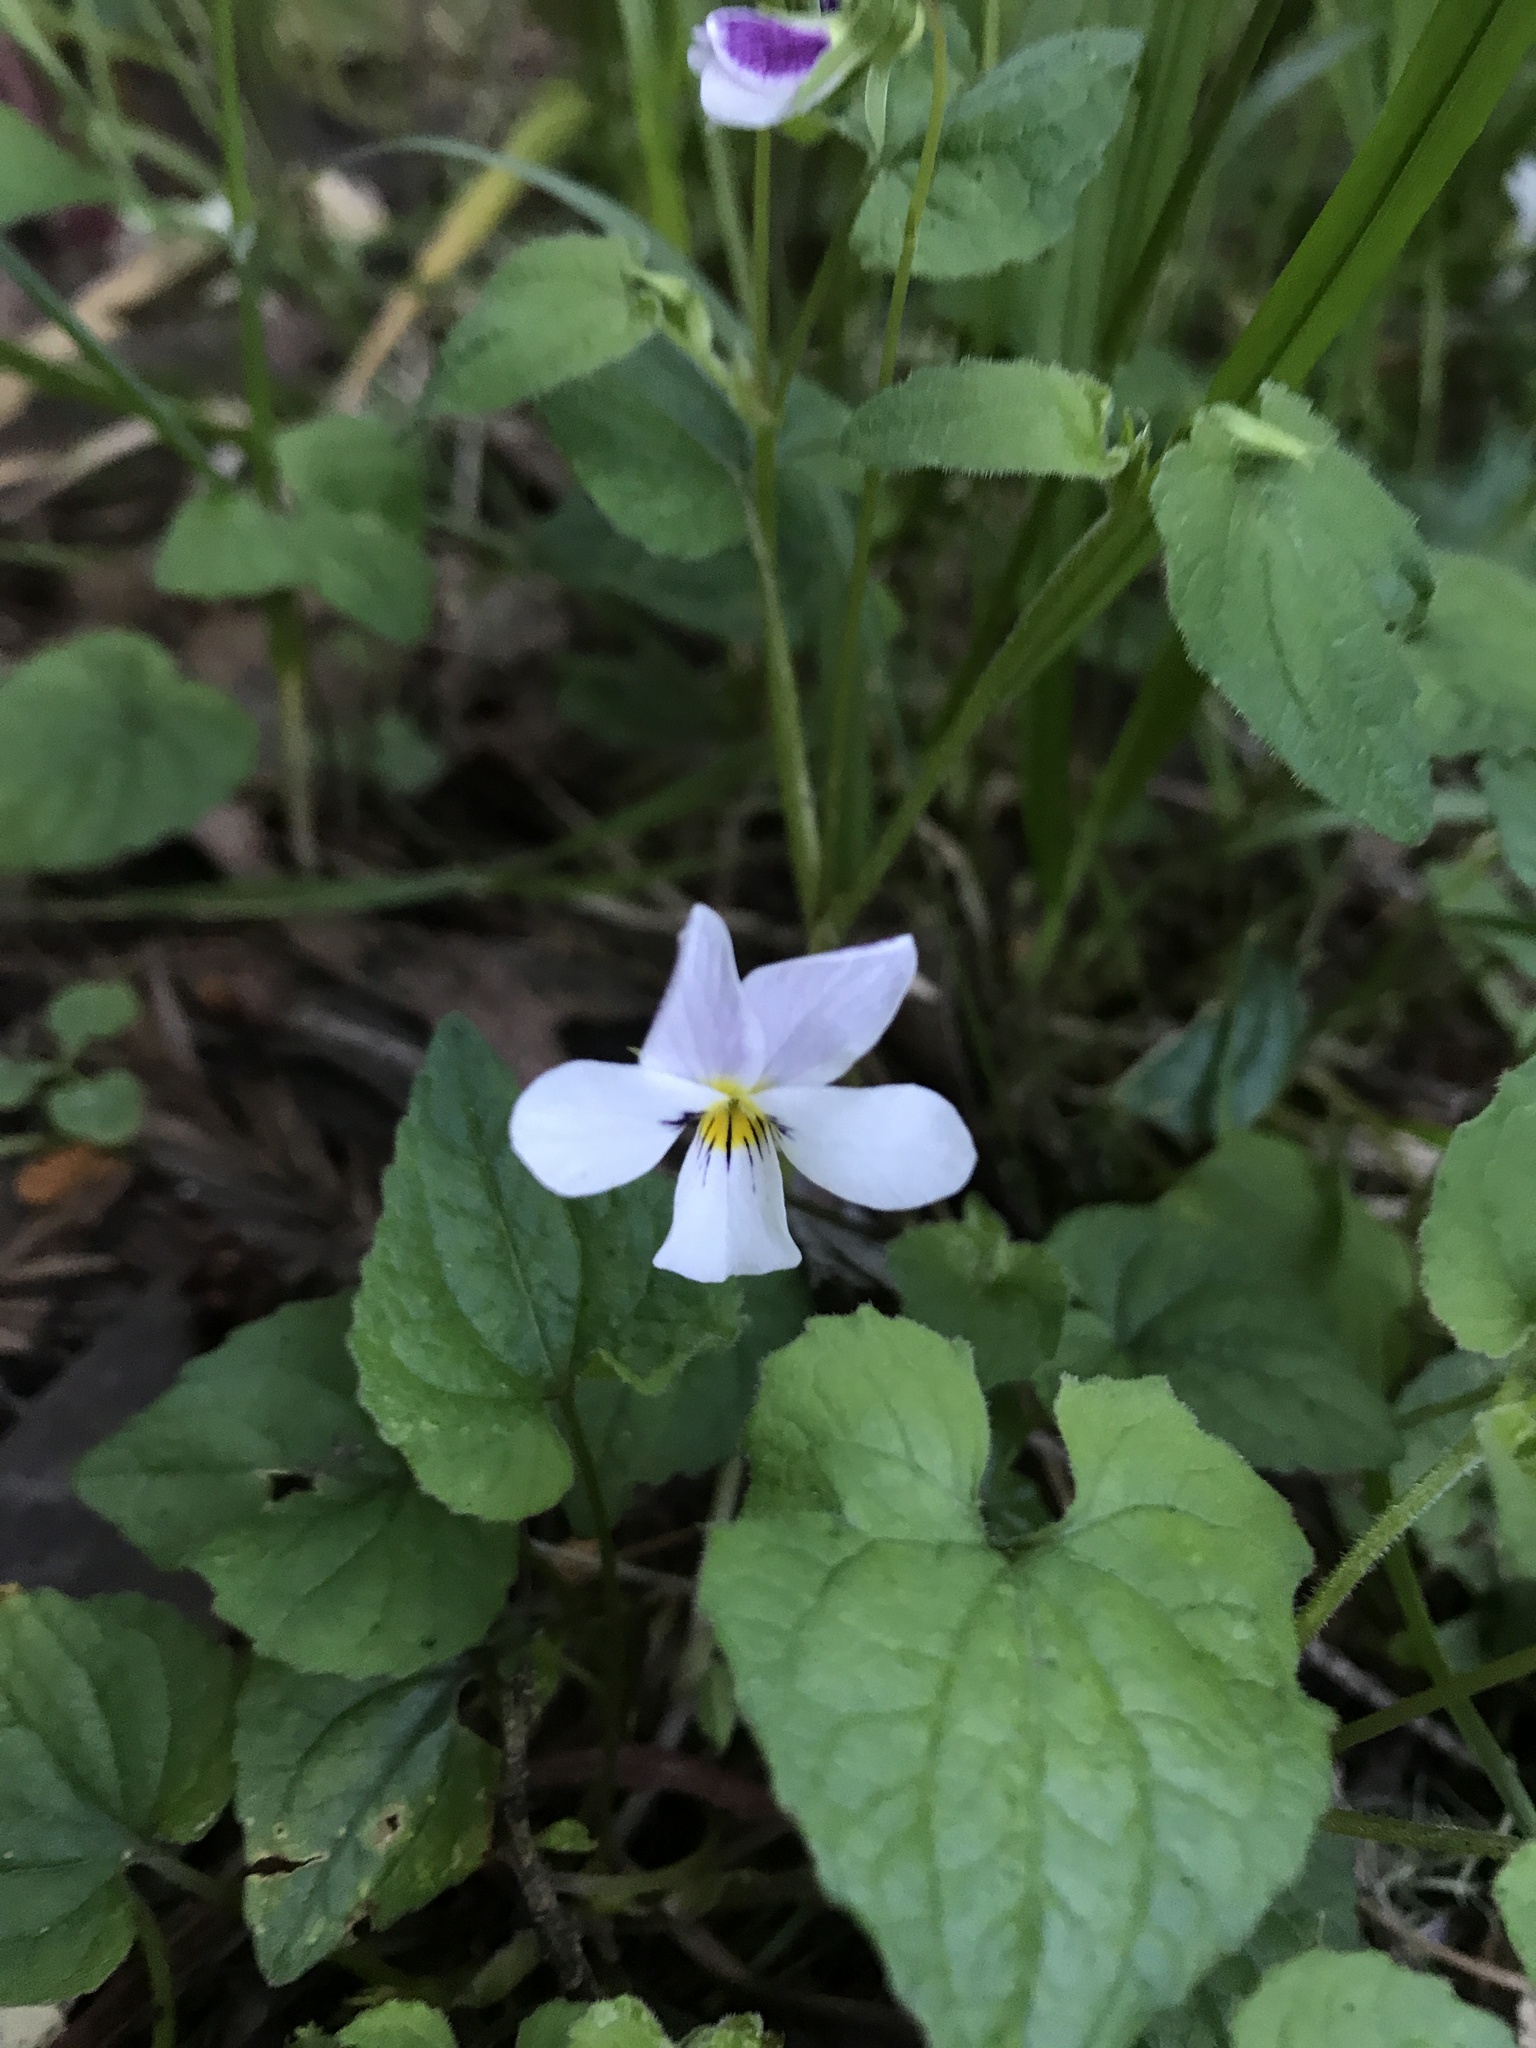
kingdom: Plantae
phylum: Tracheophyta
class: Magnoliopsida
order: Malpighiales
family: Violaceae
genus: Viola
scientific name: Viola ocellata
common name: Western heart's ease
